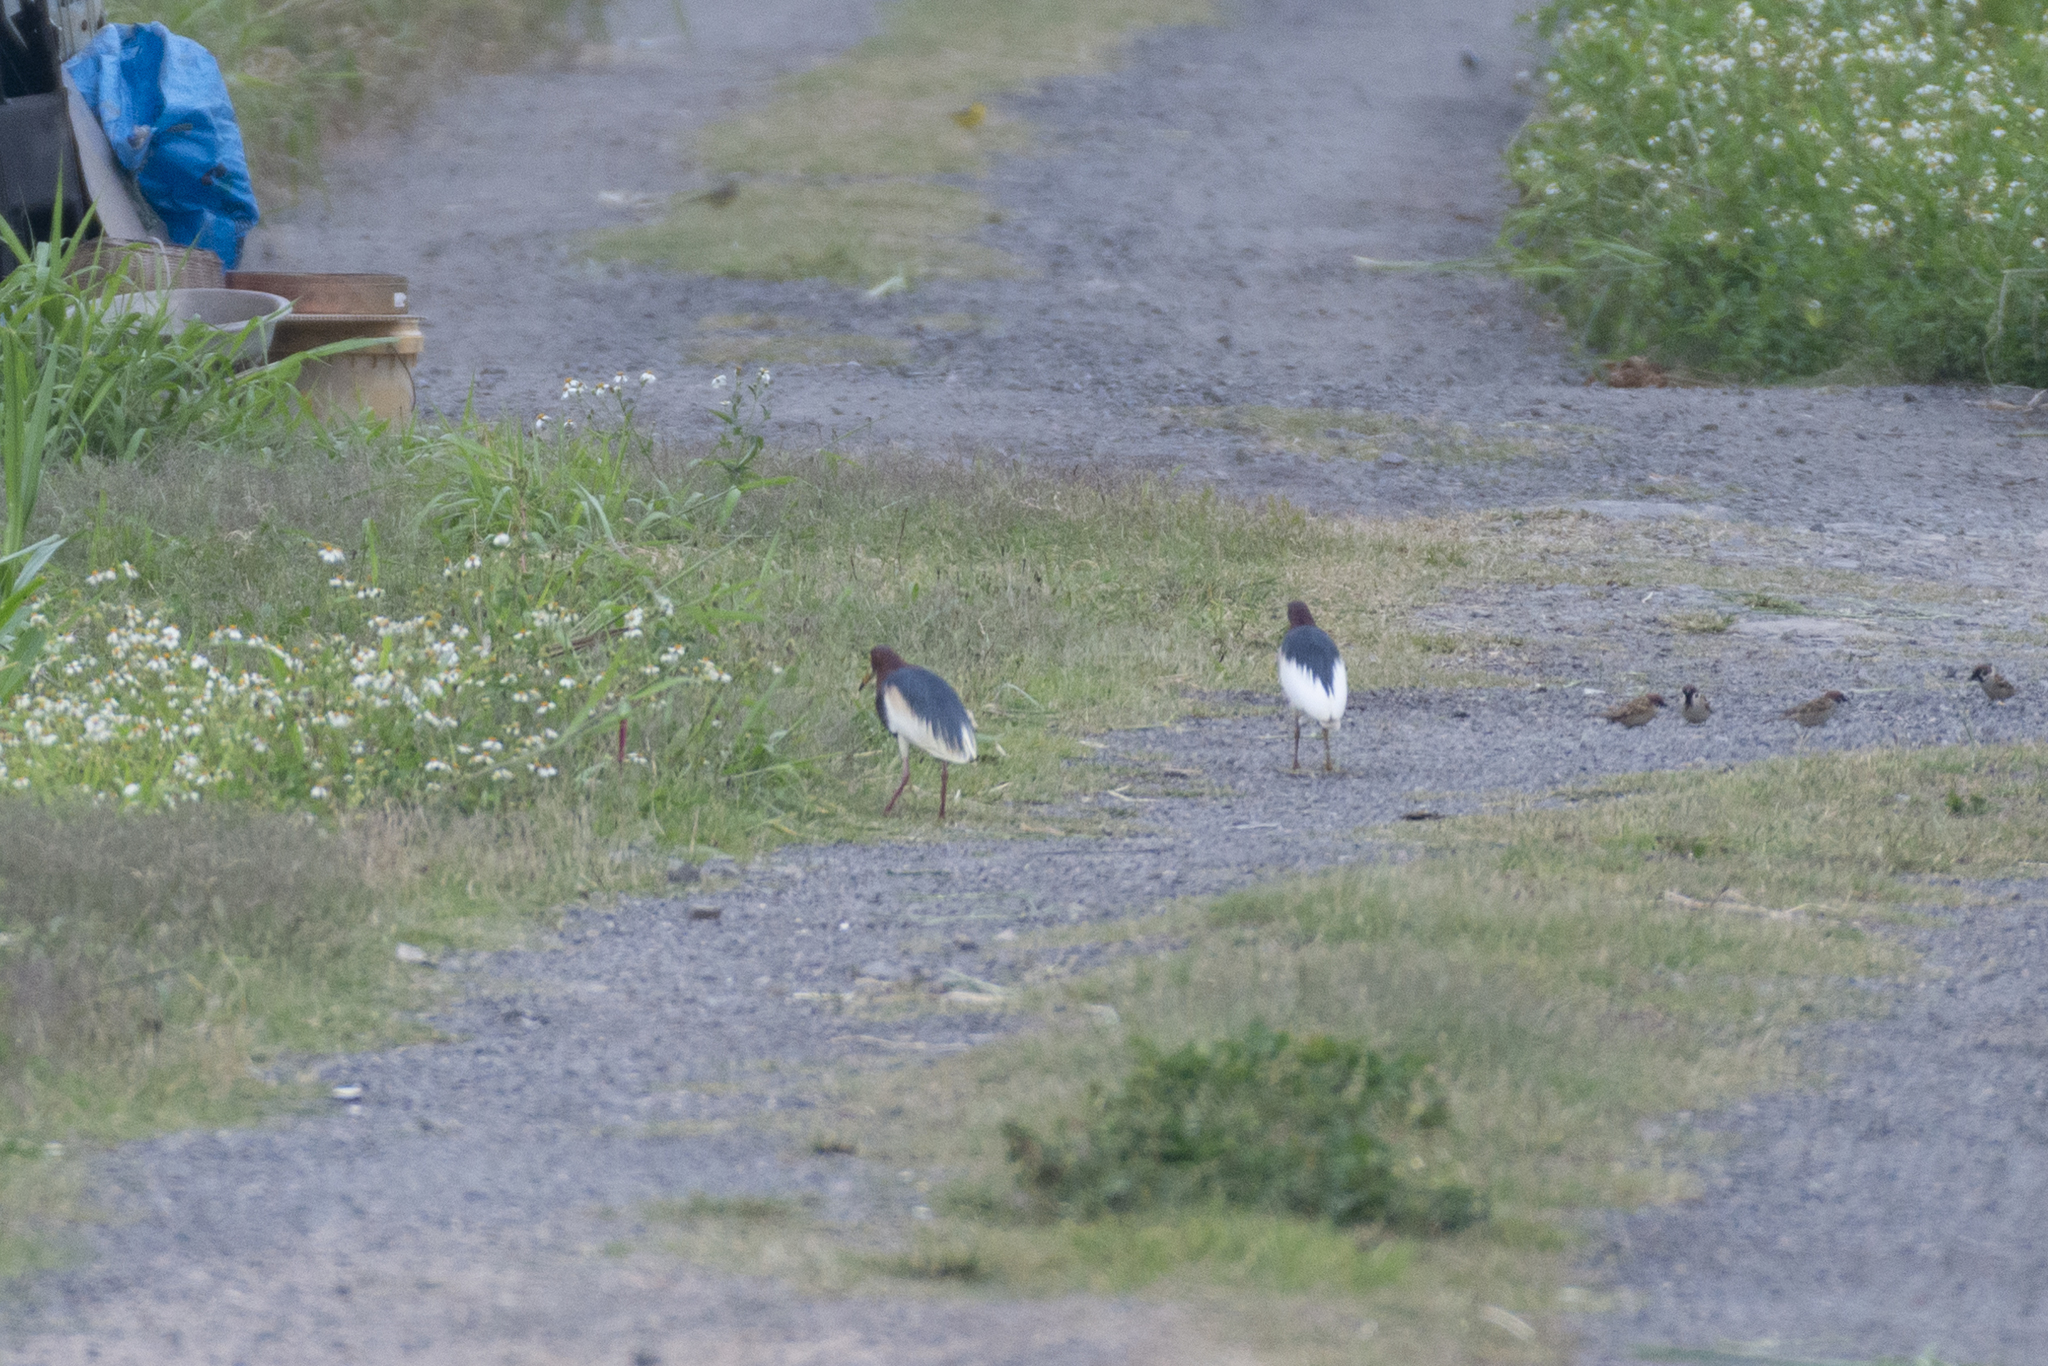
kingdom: Animalia
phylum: Chordata
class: Aves
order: Pelecaniformes
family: Ardeidae
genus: Ardeola
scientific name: Ardeola bacchus
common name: Chinese pond heron
